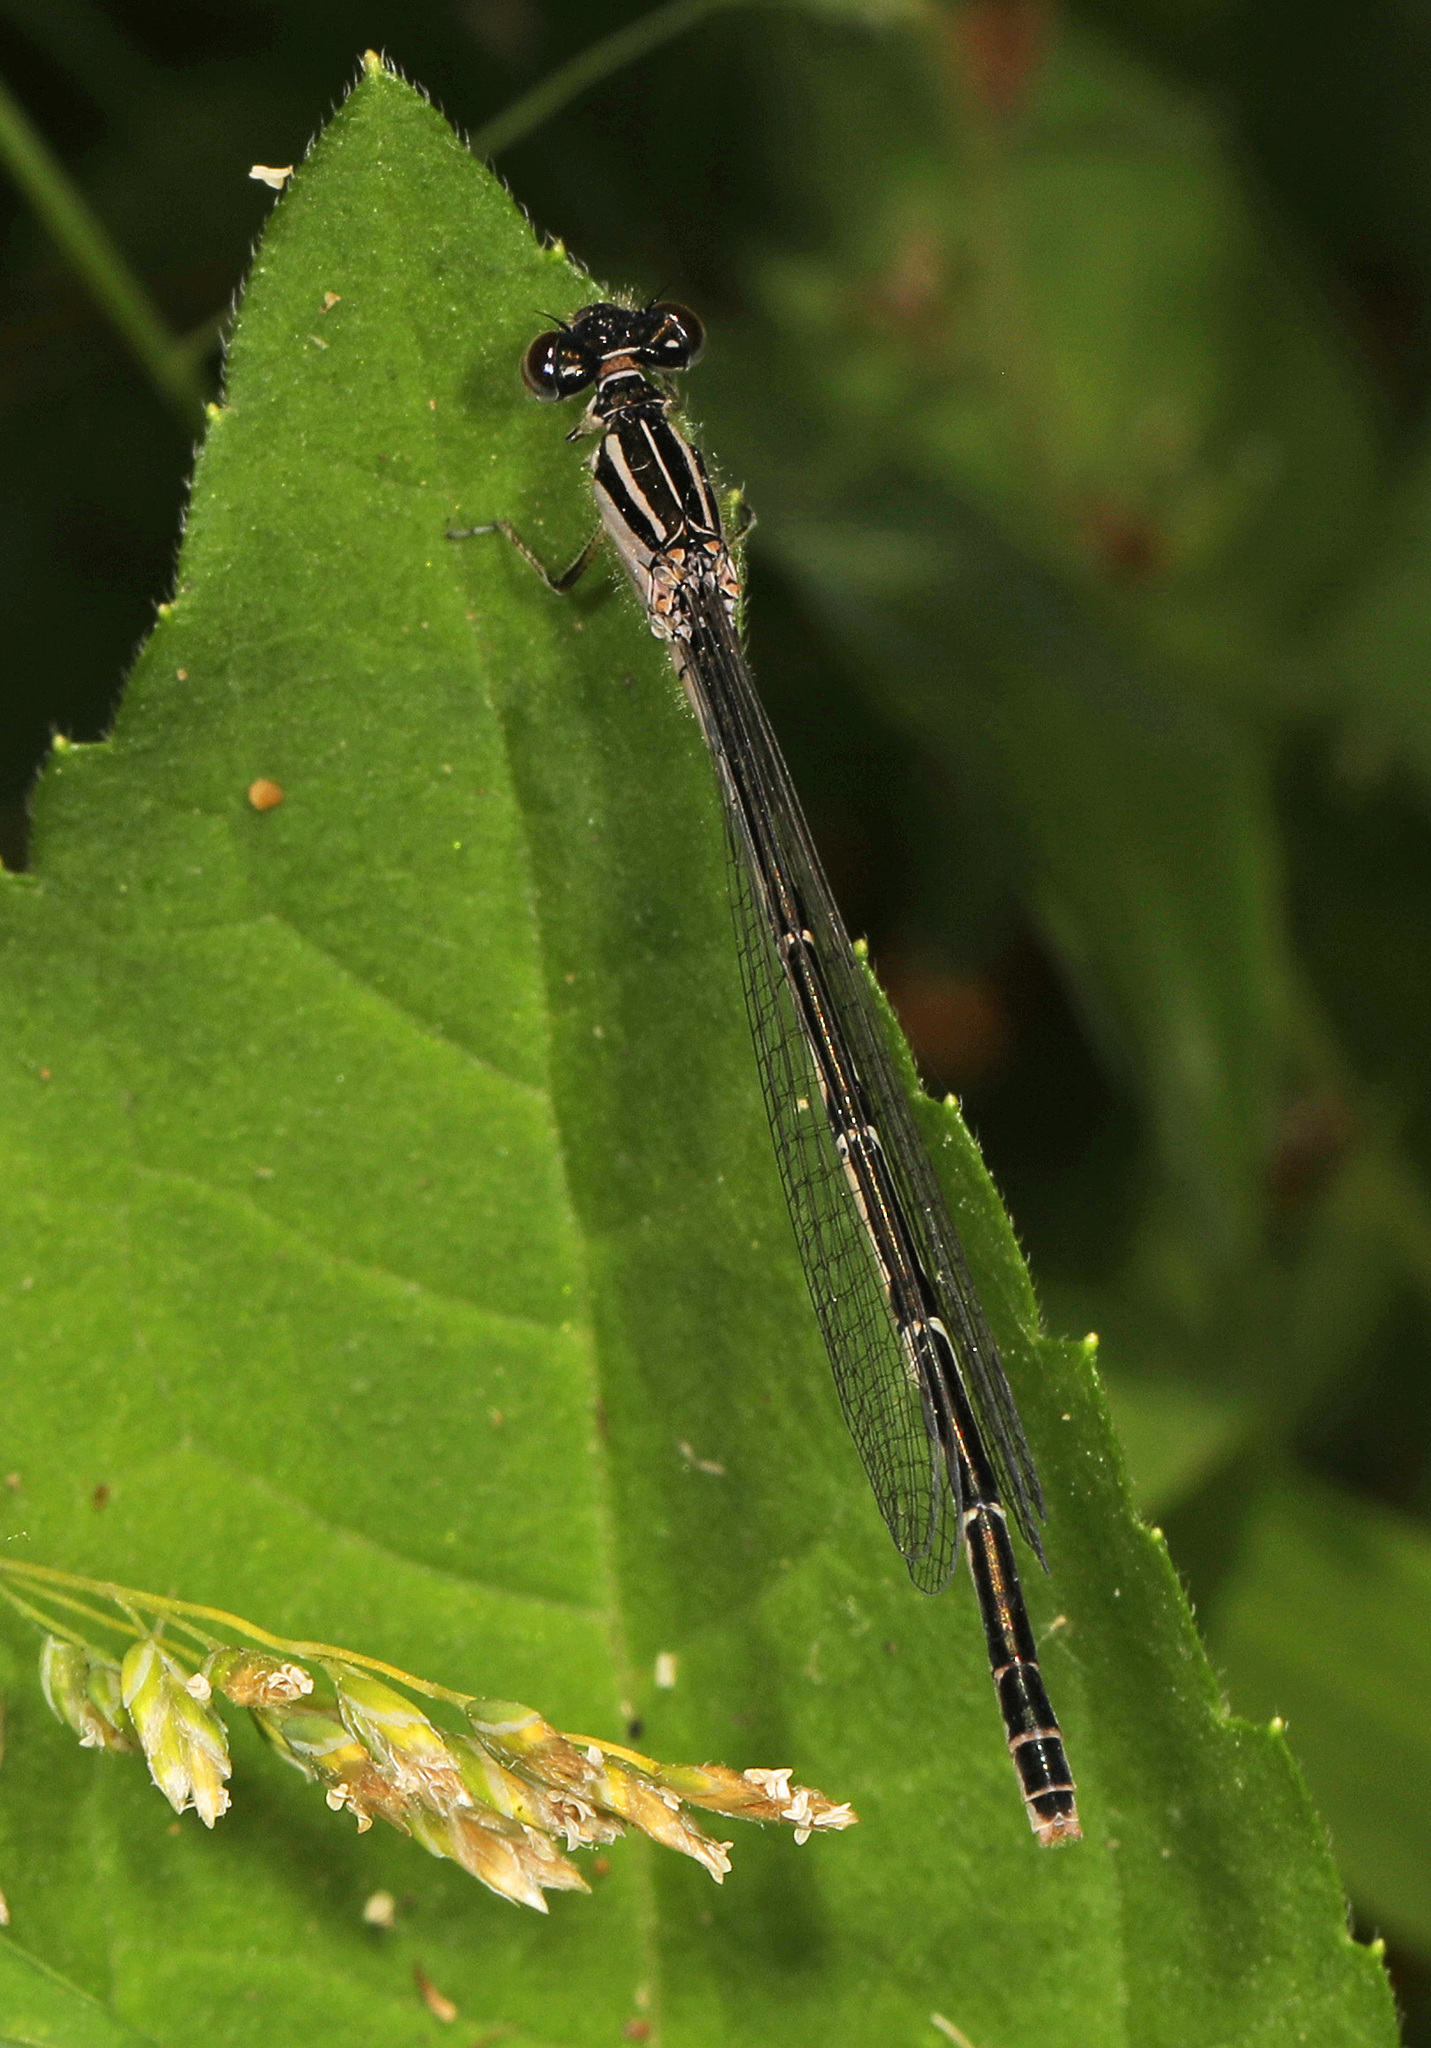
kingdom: Animalia
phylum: Arthropoda
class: Insecta
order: Odonata
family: Coenagrionidae
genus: Enallagma
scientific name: Enallagma durum
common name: Big bluet
